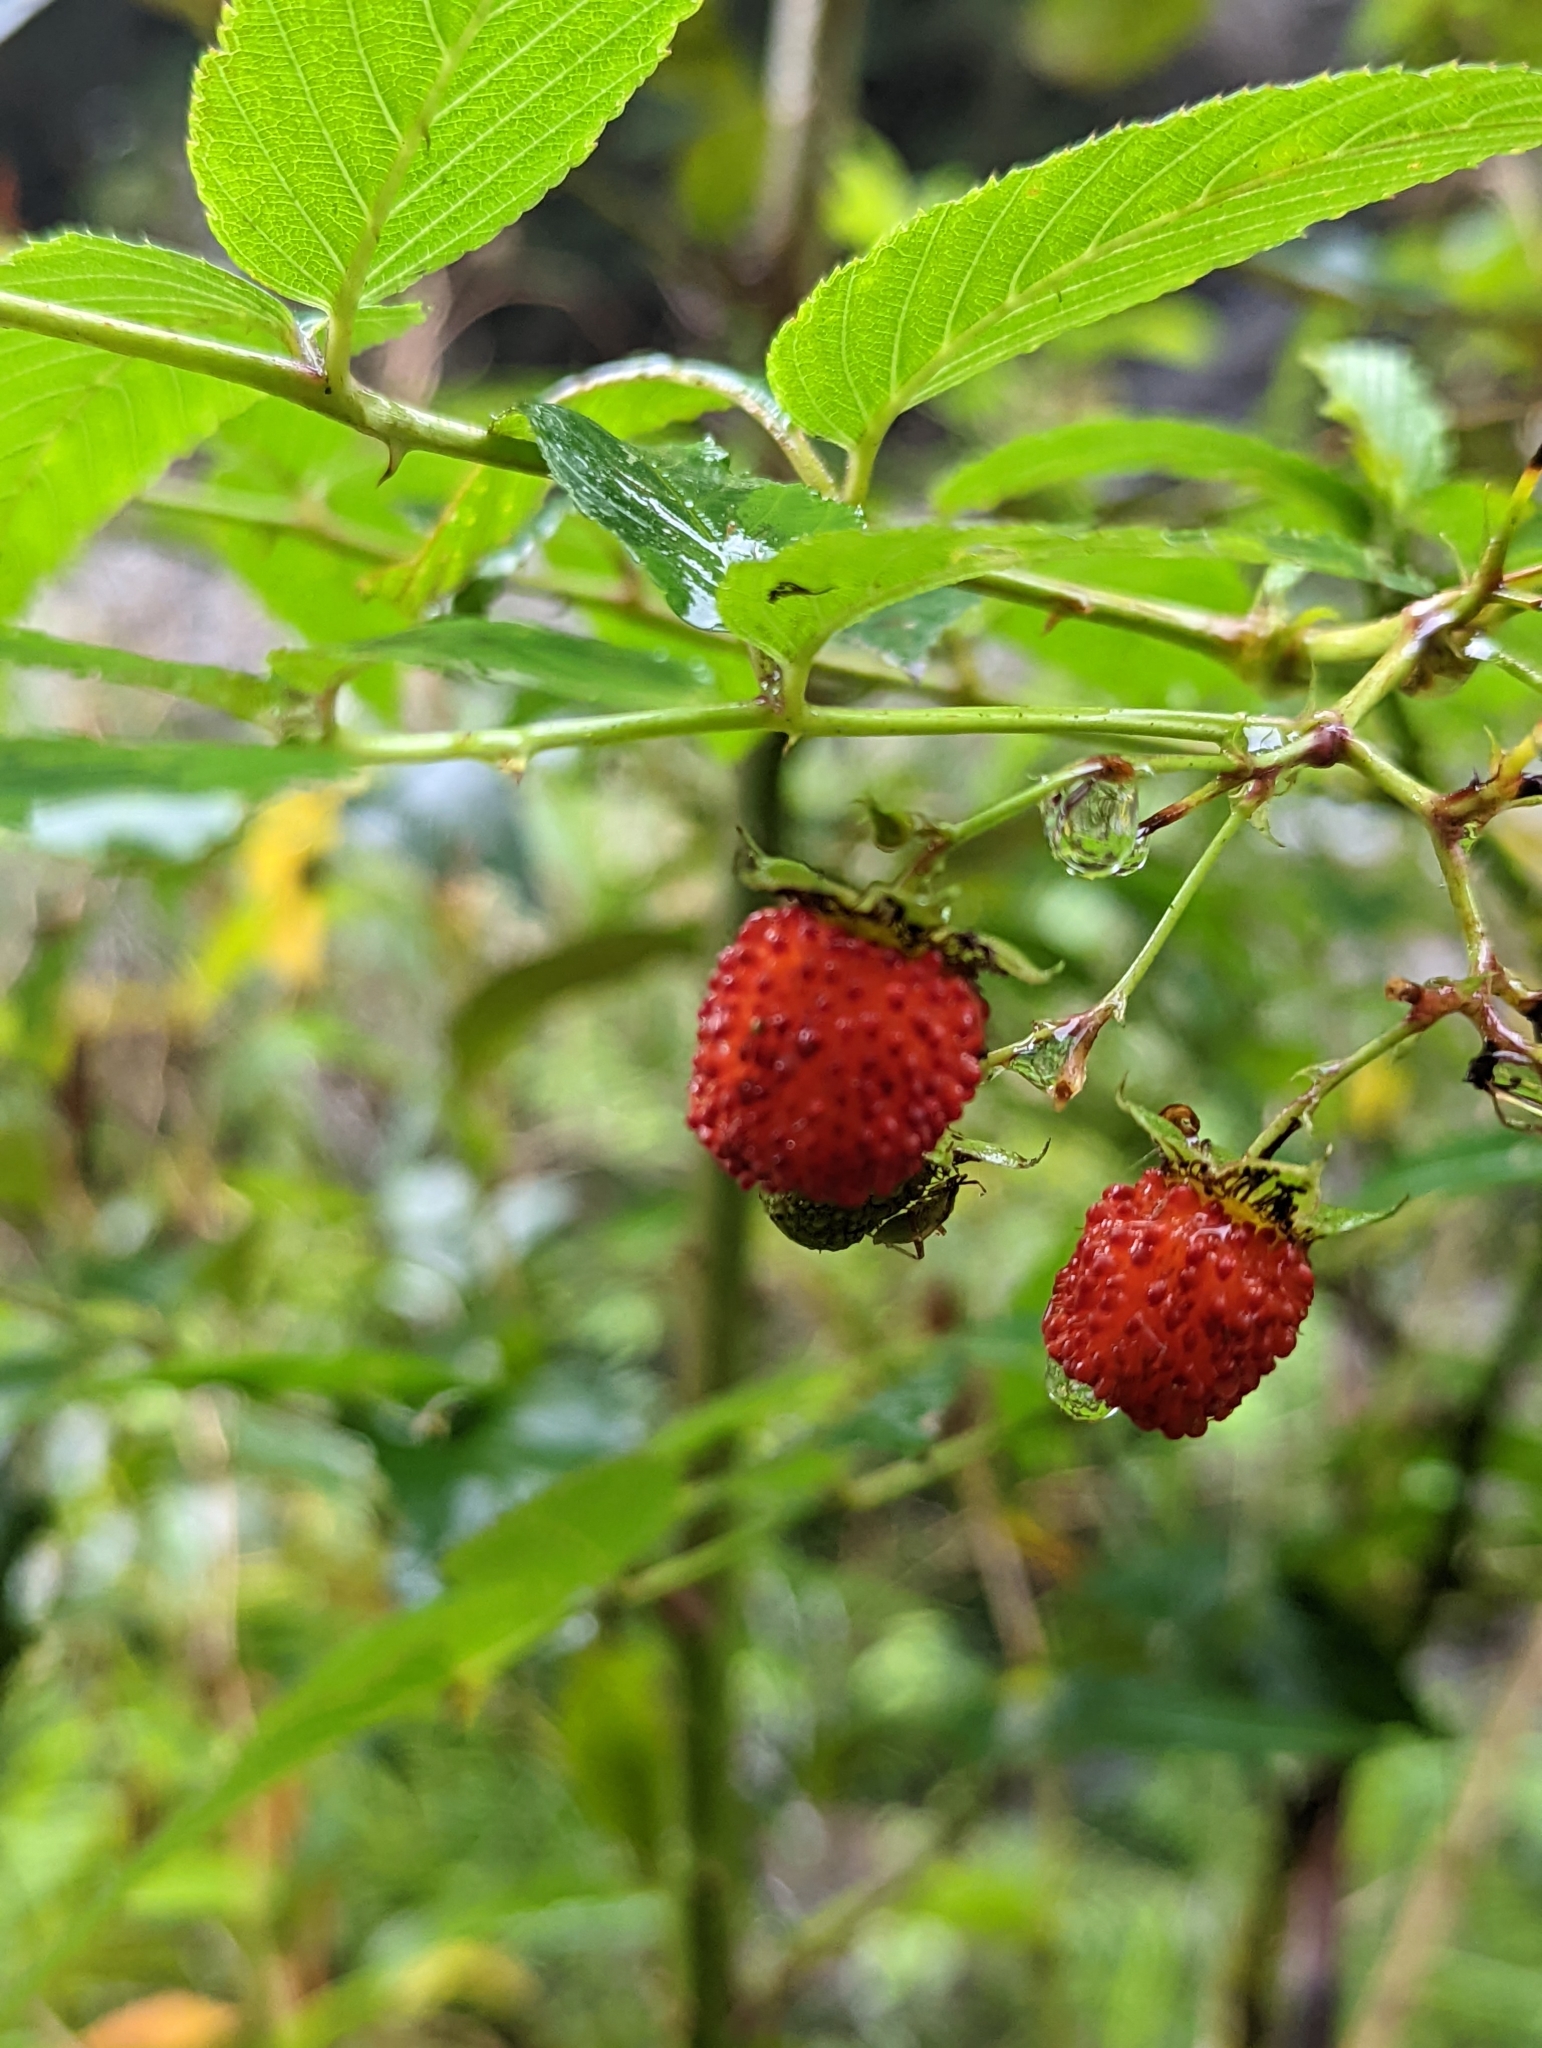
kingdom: Plantae
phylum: Tracheophyta
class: Magnoliopsida
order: Rosales
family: Rosaceae
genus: Rubus
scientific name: Rubus fraxinifolius
